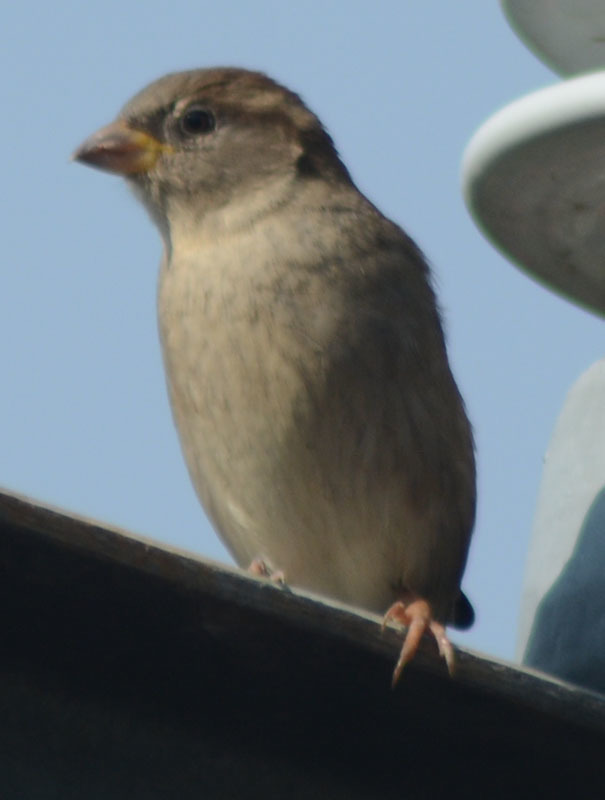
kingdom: Animalia
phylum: Chordata
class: Aves
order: Passeriformes
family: Passeridae
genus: Passer
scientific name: Passer domesticus
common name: House sparrow
